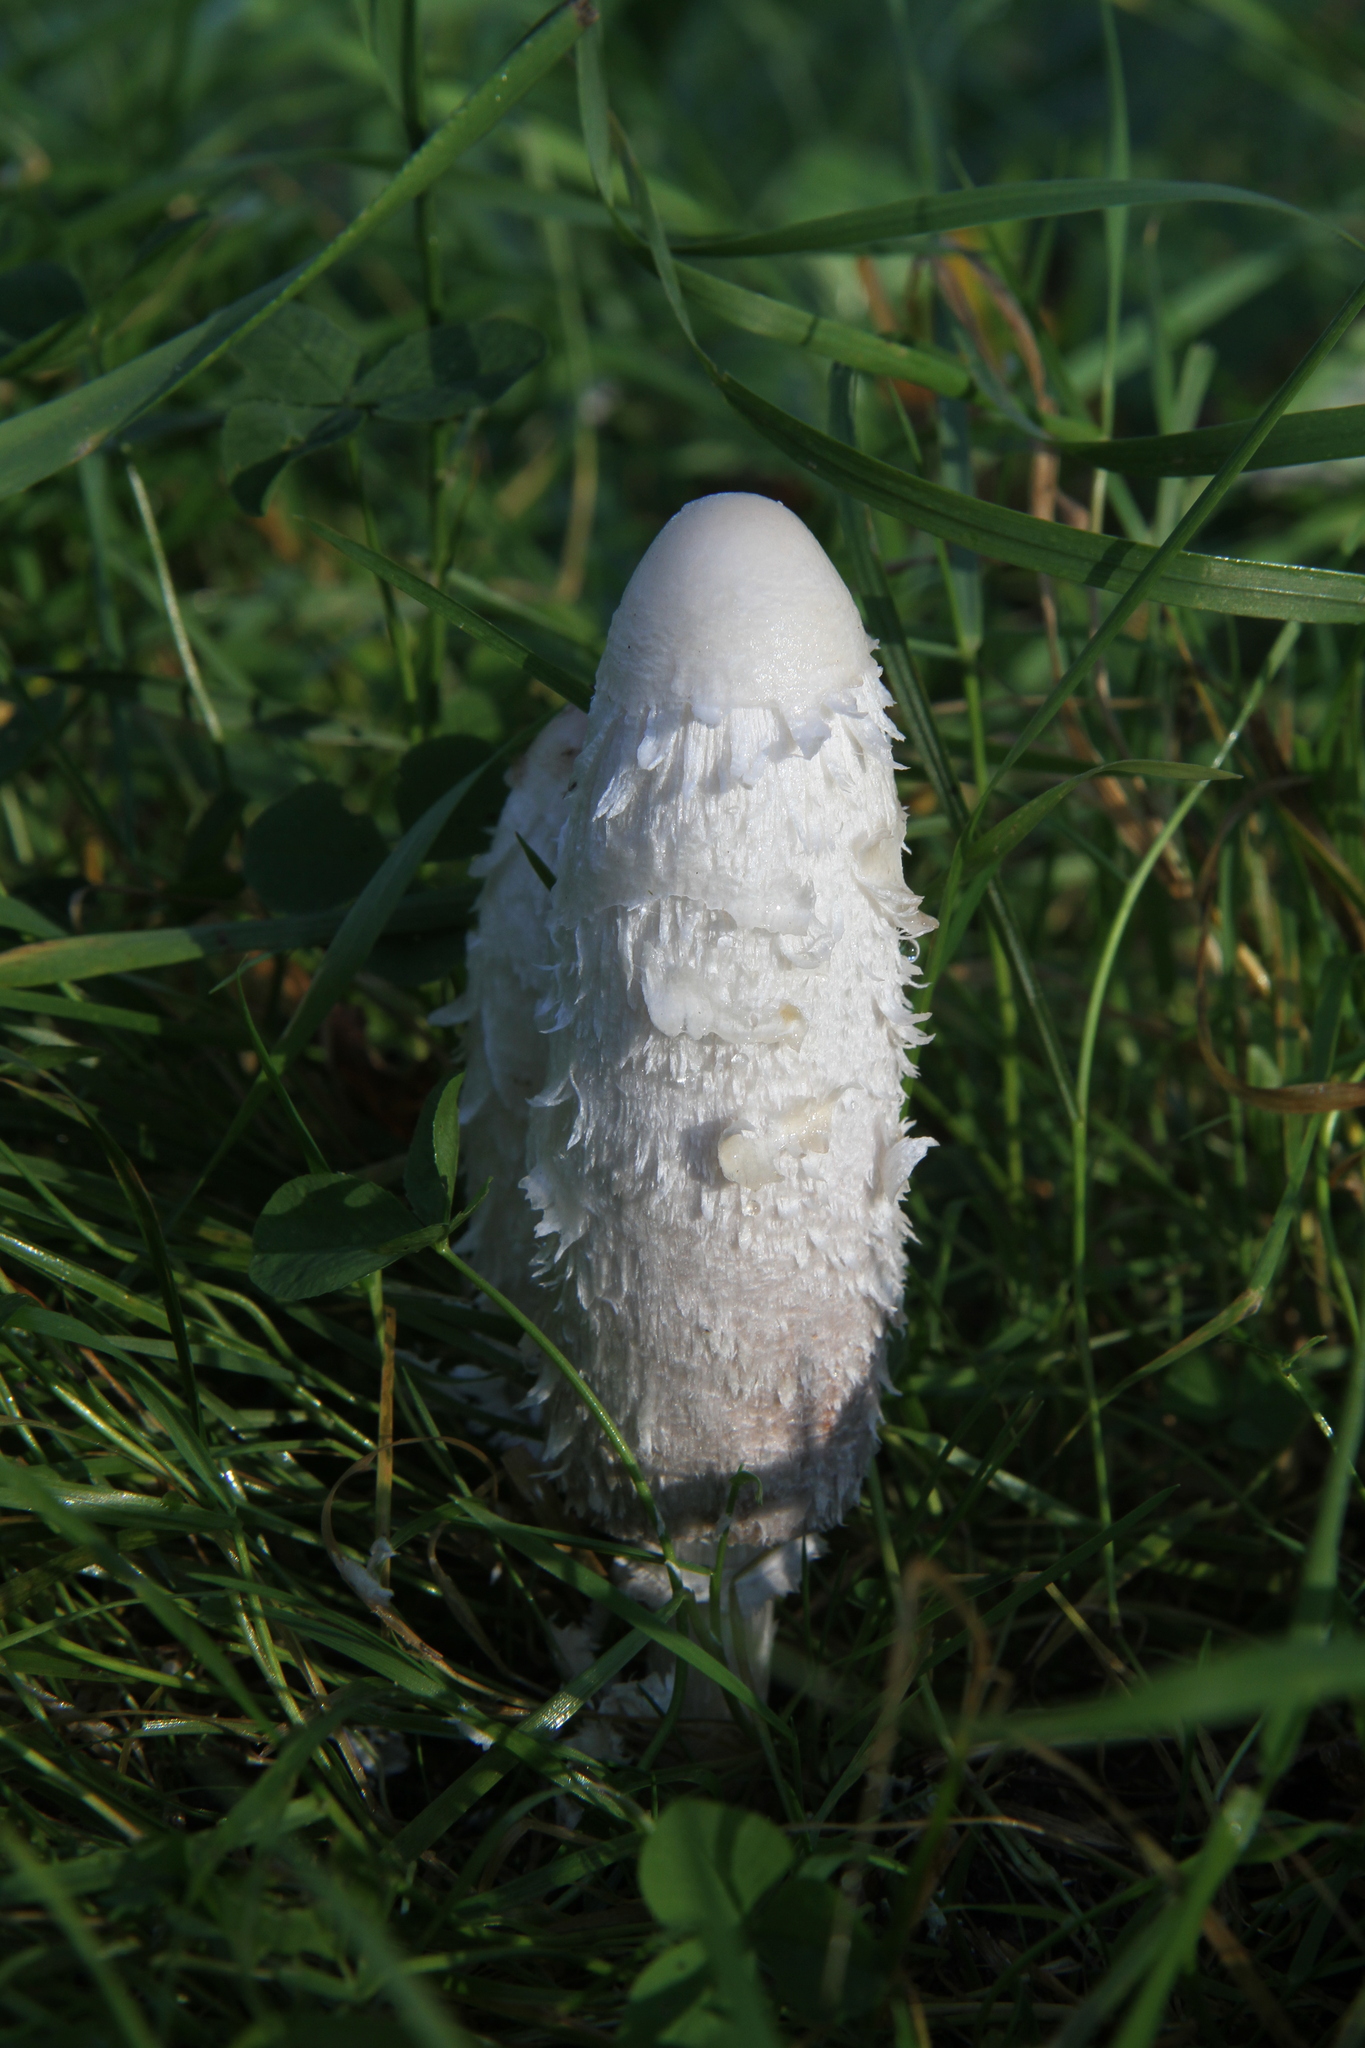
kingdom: Fungi
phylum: Basidiomycota
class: Agaricomycetes
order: Agaricales
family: Agaricaceae
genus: Coprinus
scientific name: Coprinus comatus
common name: Lawyer's wig
